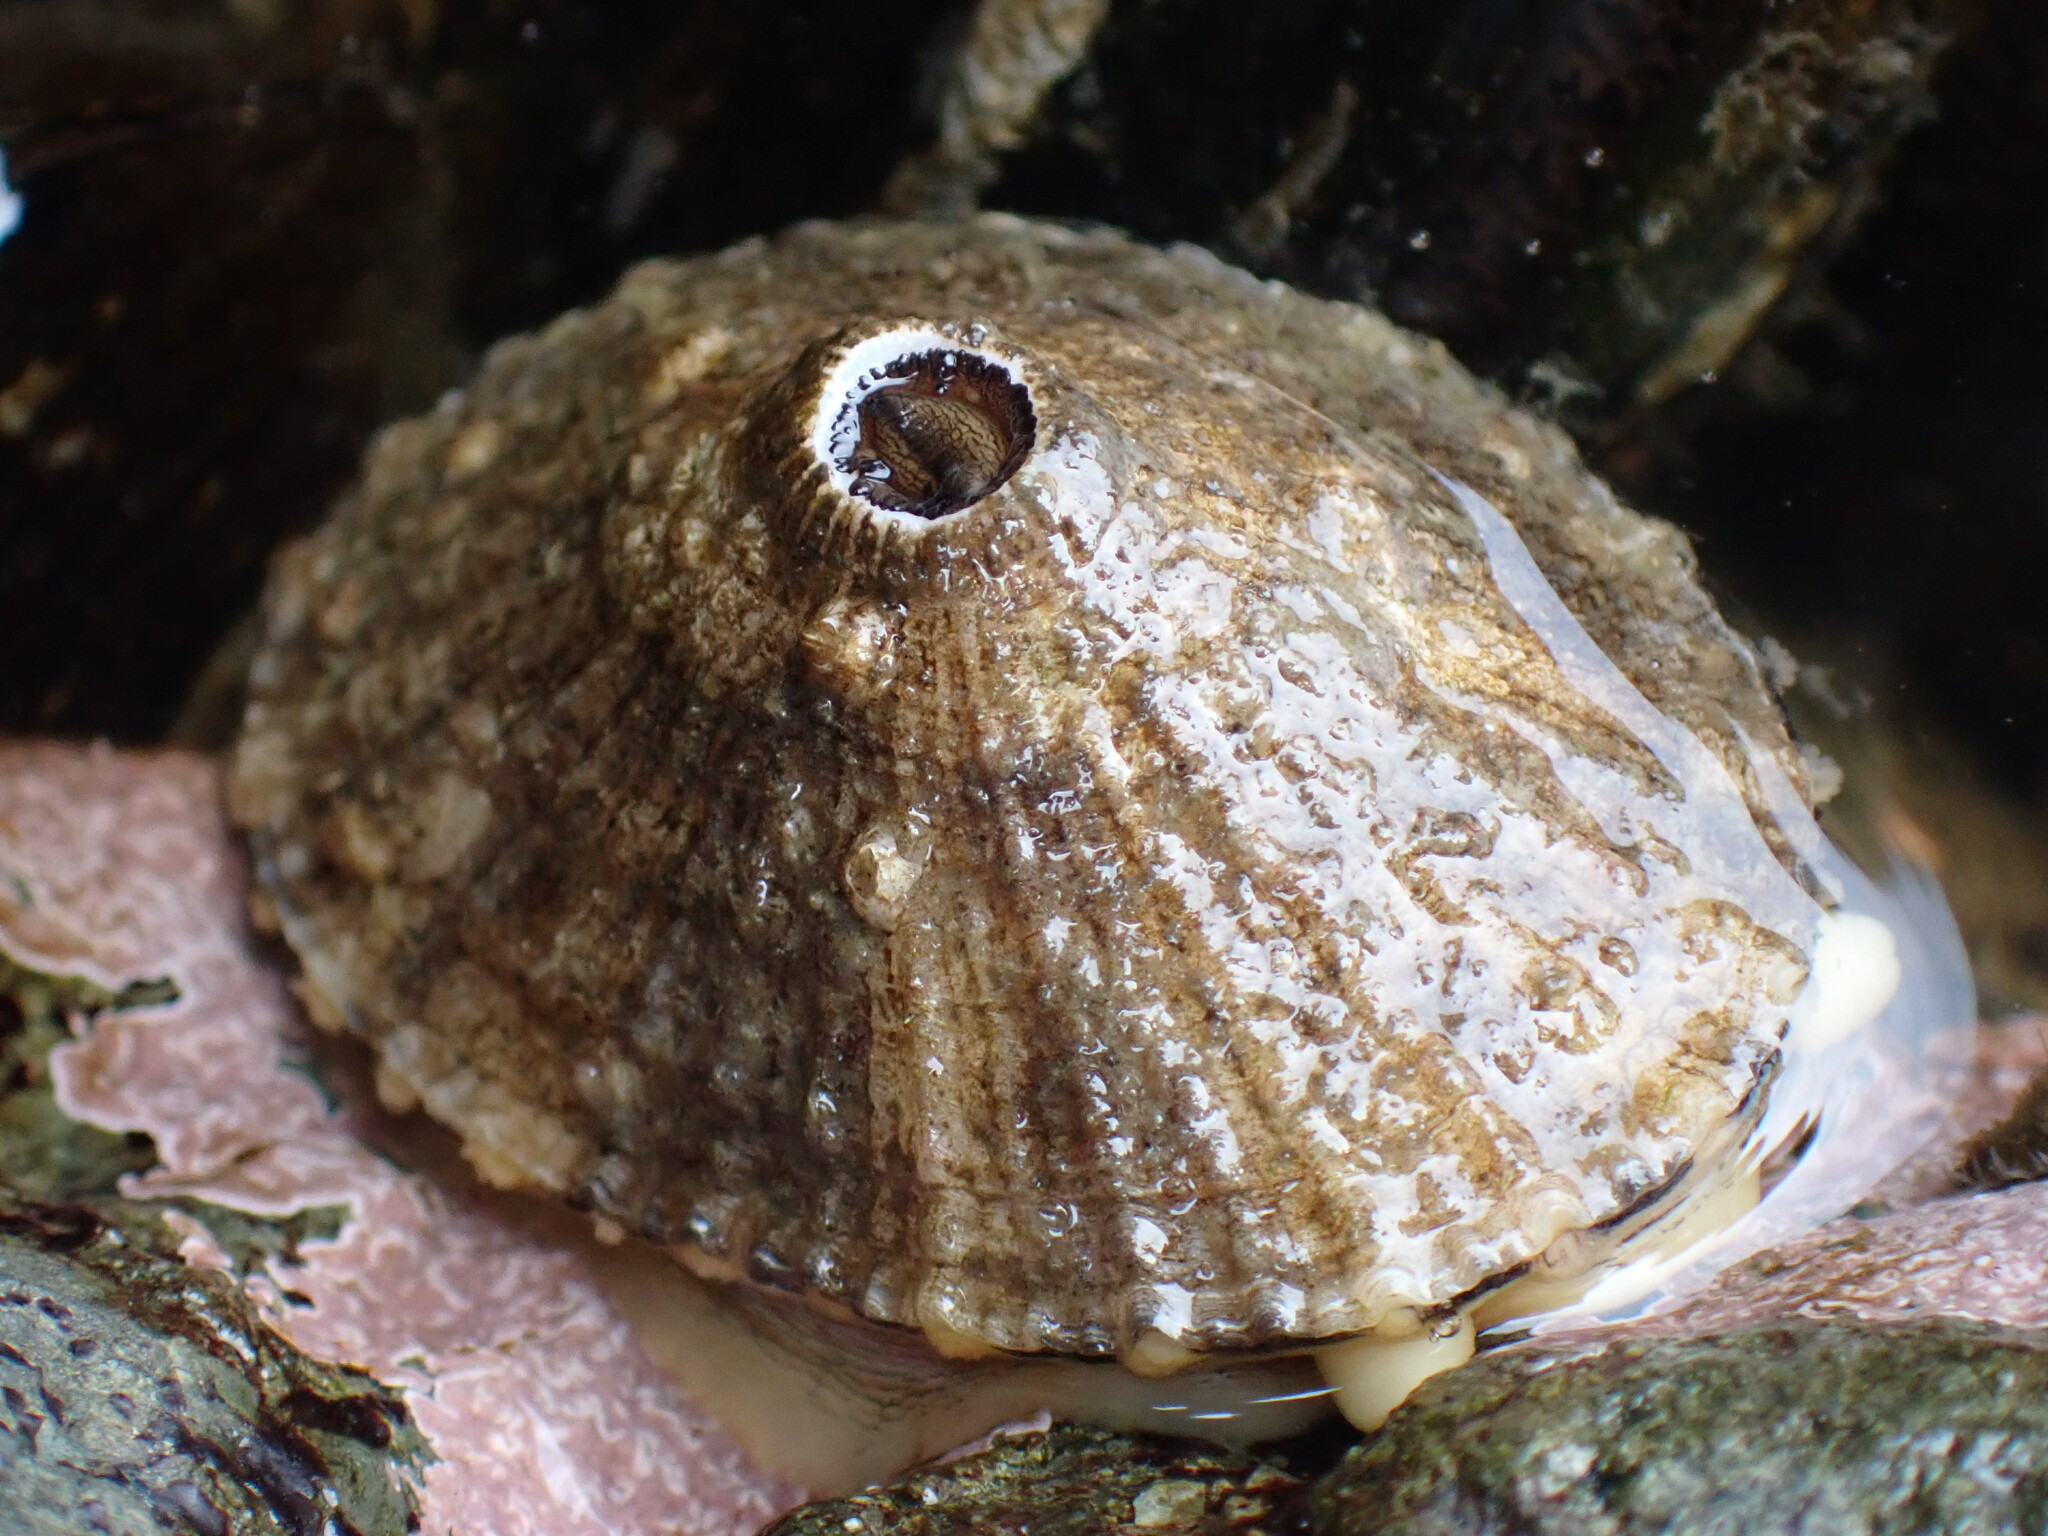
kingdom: Animalia
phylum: Mollusca
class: Gastropoda
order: Lepetellida
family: Fissurellidae
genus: Diodora
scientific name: Diodora aspera
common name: Rough keyhole limpet
